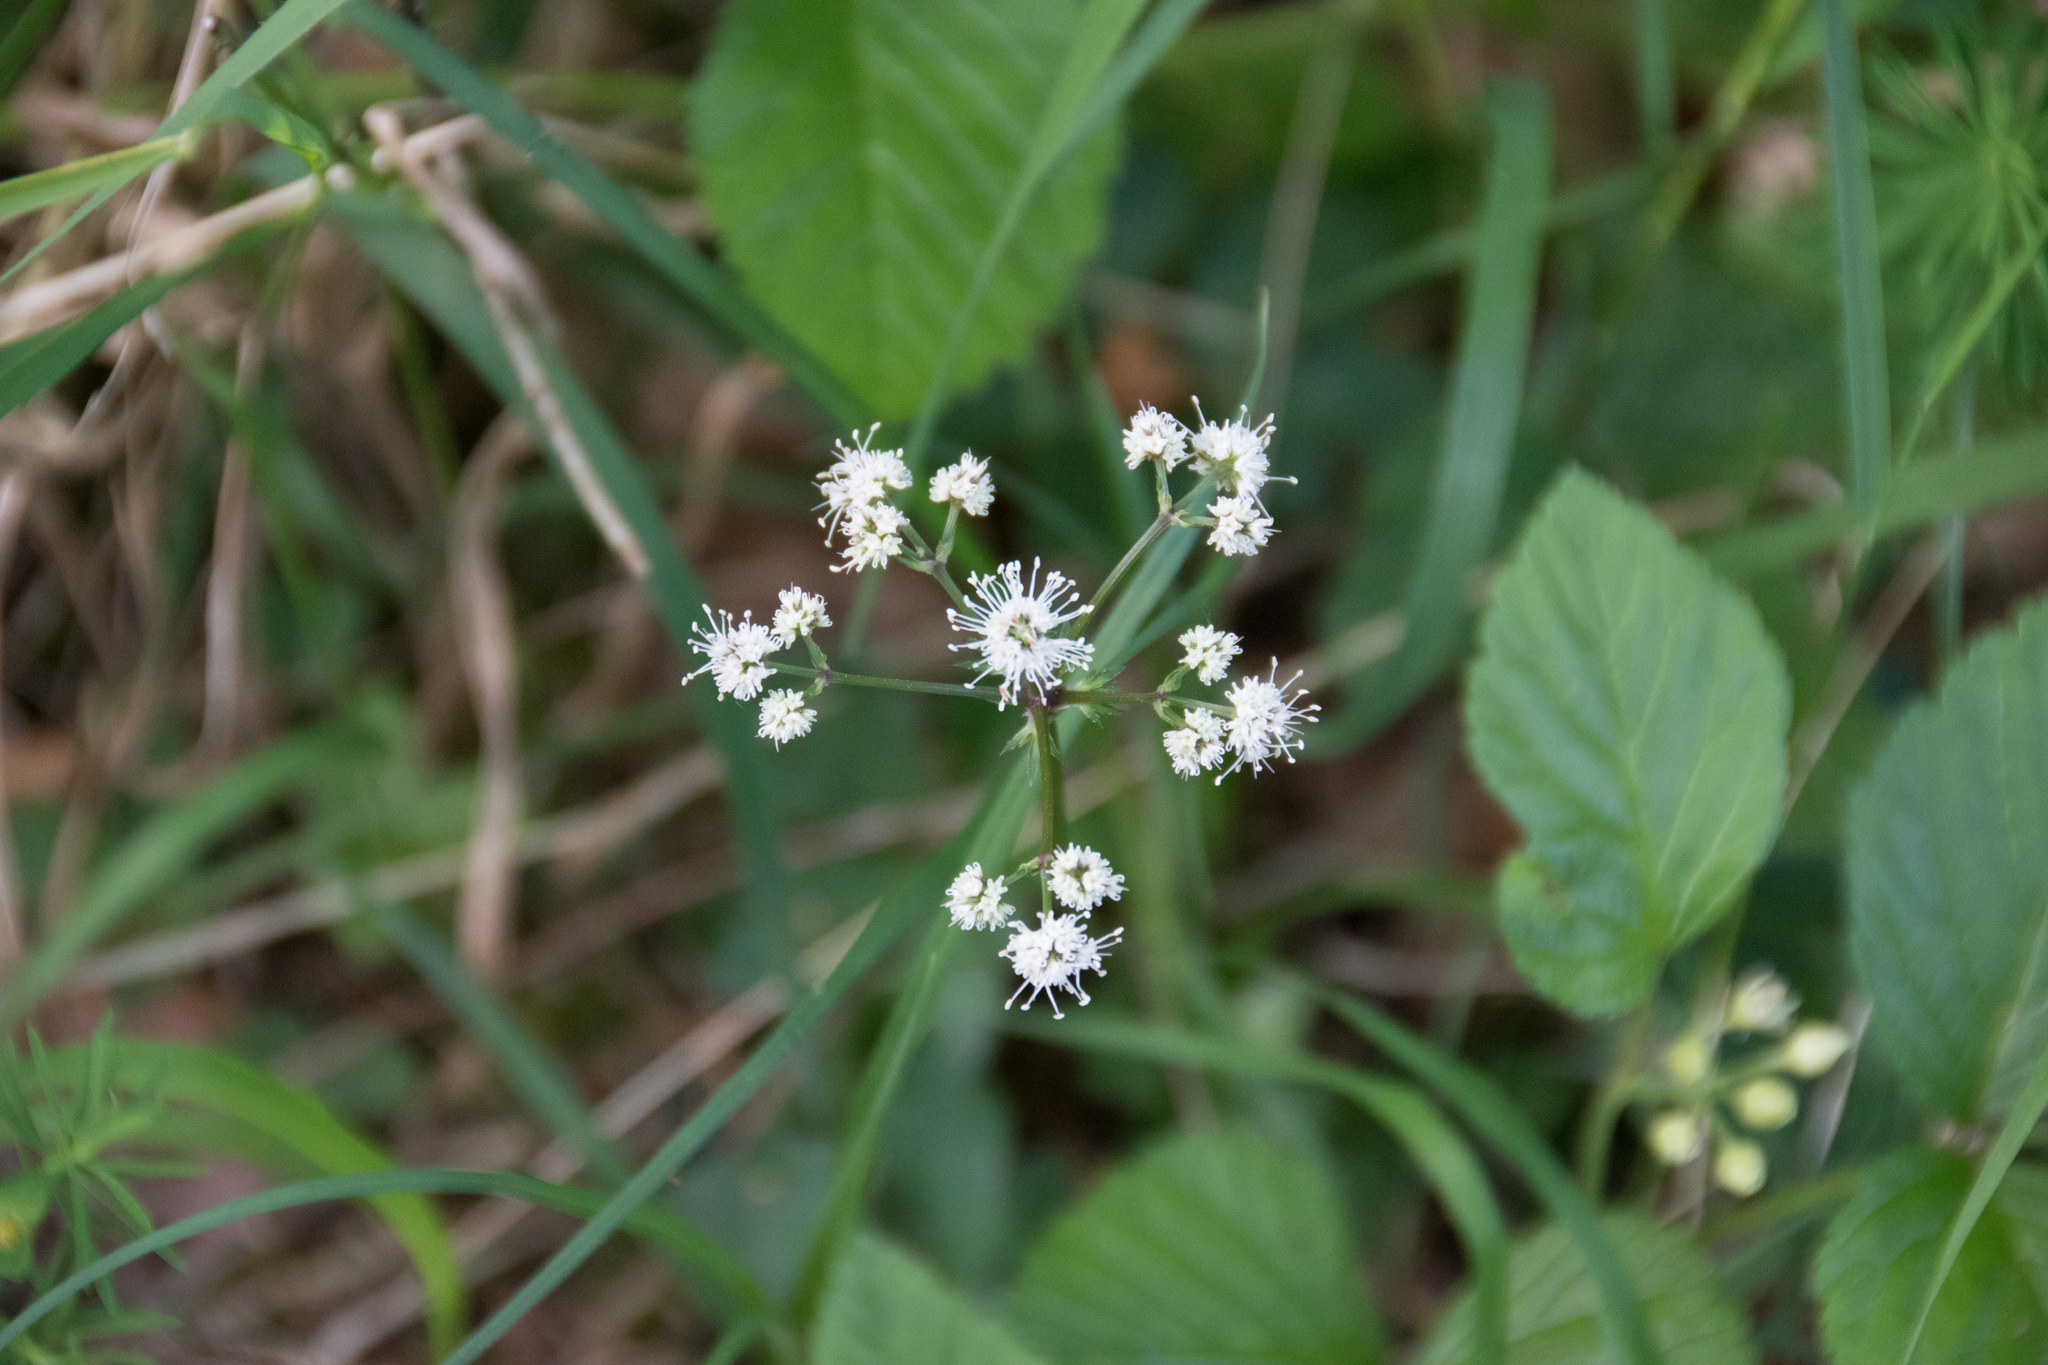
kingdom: Plantae
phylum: Tracheophyta
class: Magnoliopsida
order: Apiales
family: Apiaceae
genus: Sanicula
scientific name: Sanicula europaea
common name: Sanicle
